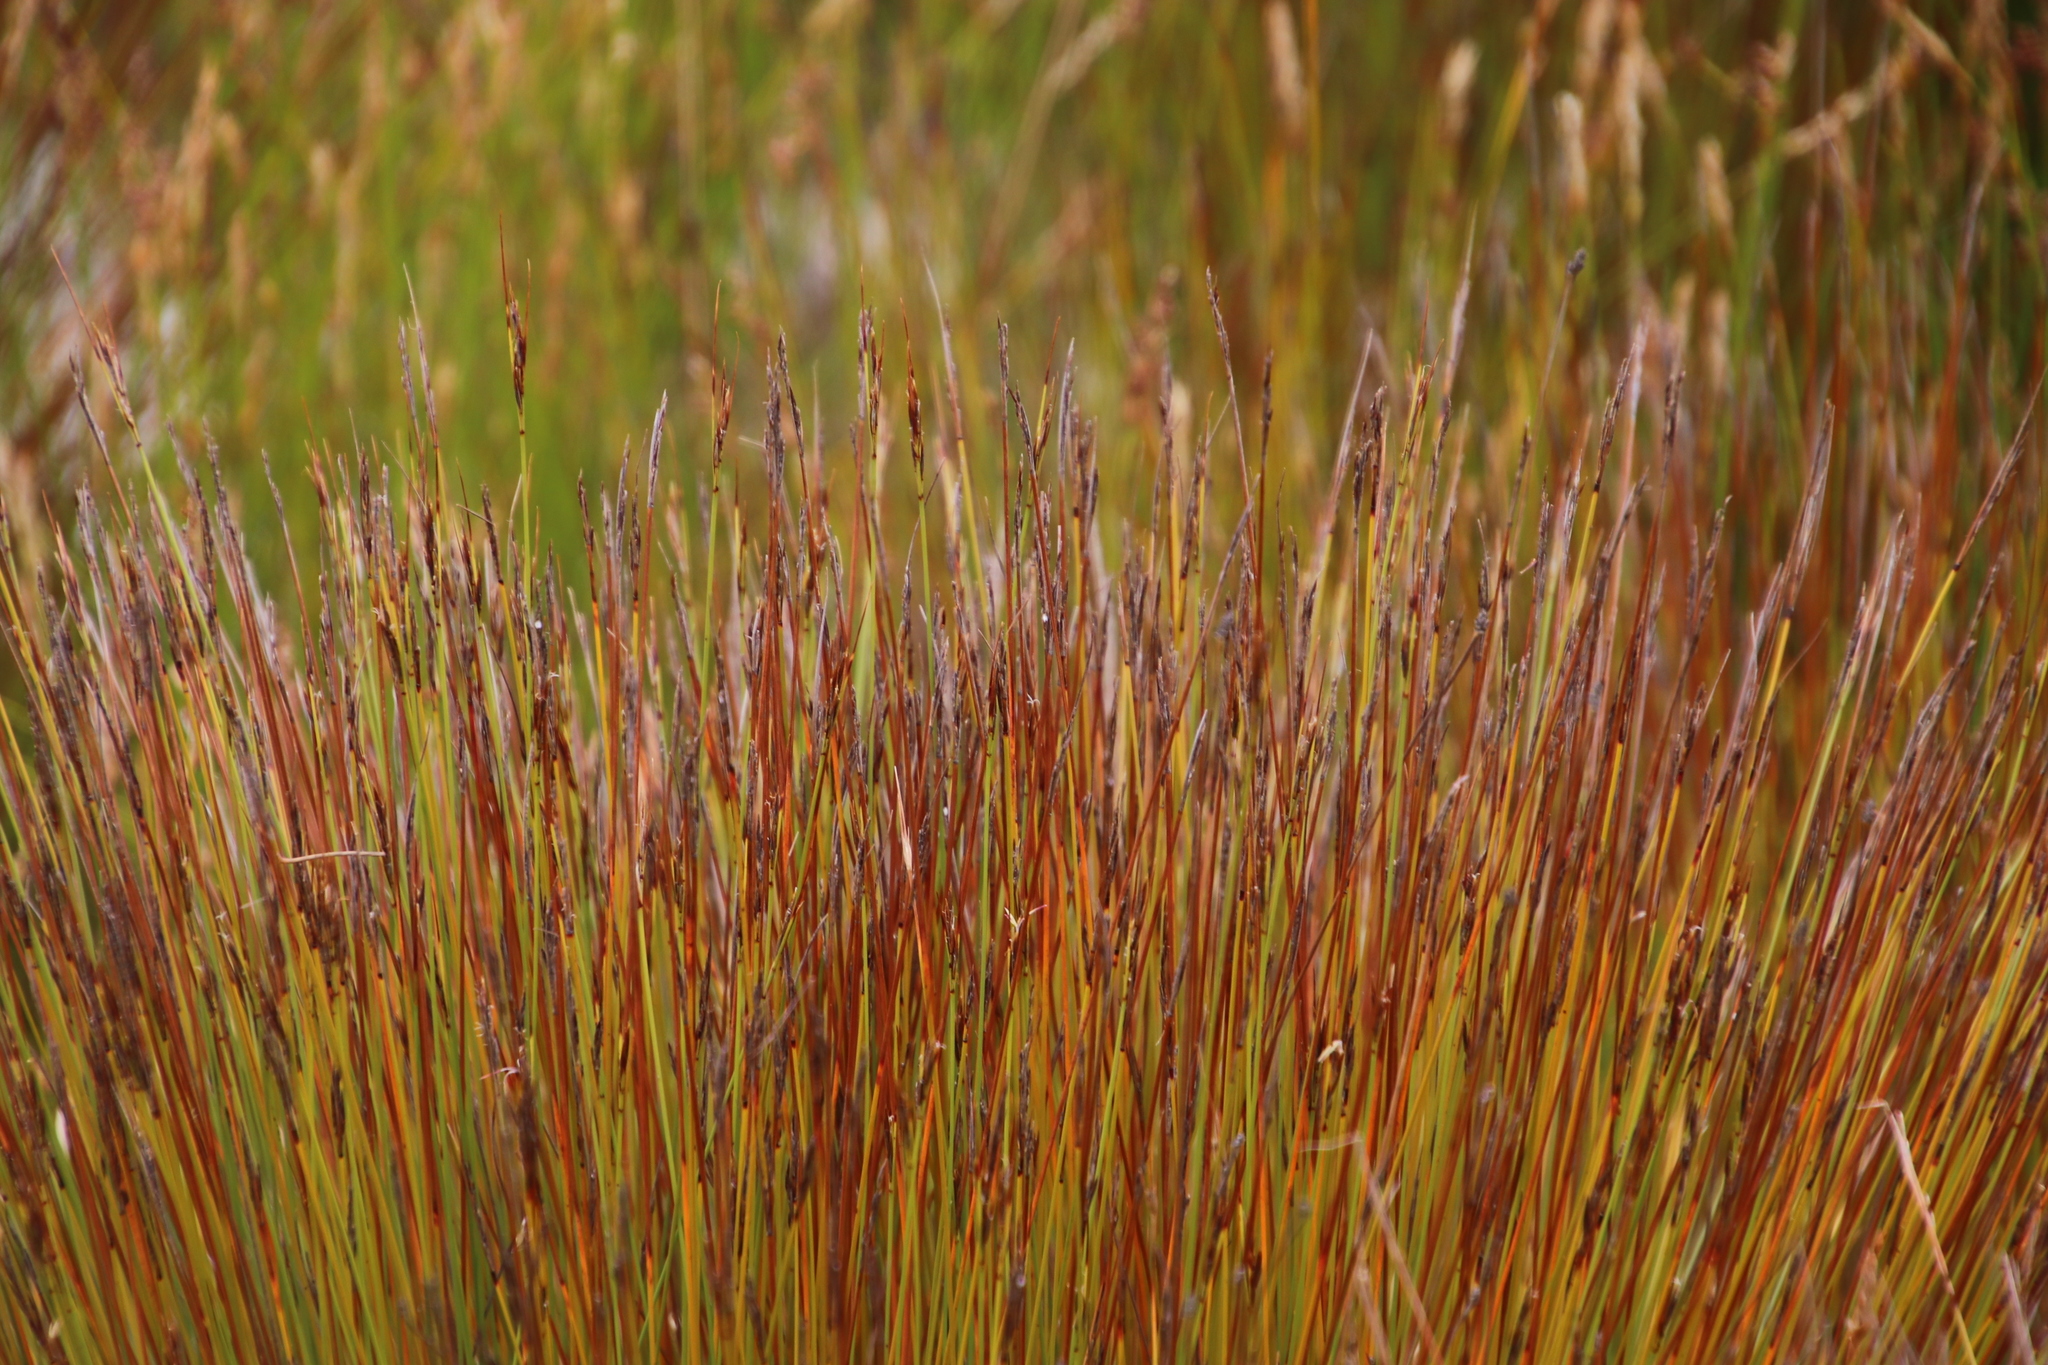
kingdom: Plantae
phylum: Tracheophyta
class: Liliopsida
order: Poales
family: Cyperaceae
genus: Schoenus
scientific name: Schoenus dregeanus
